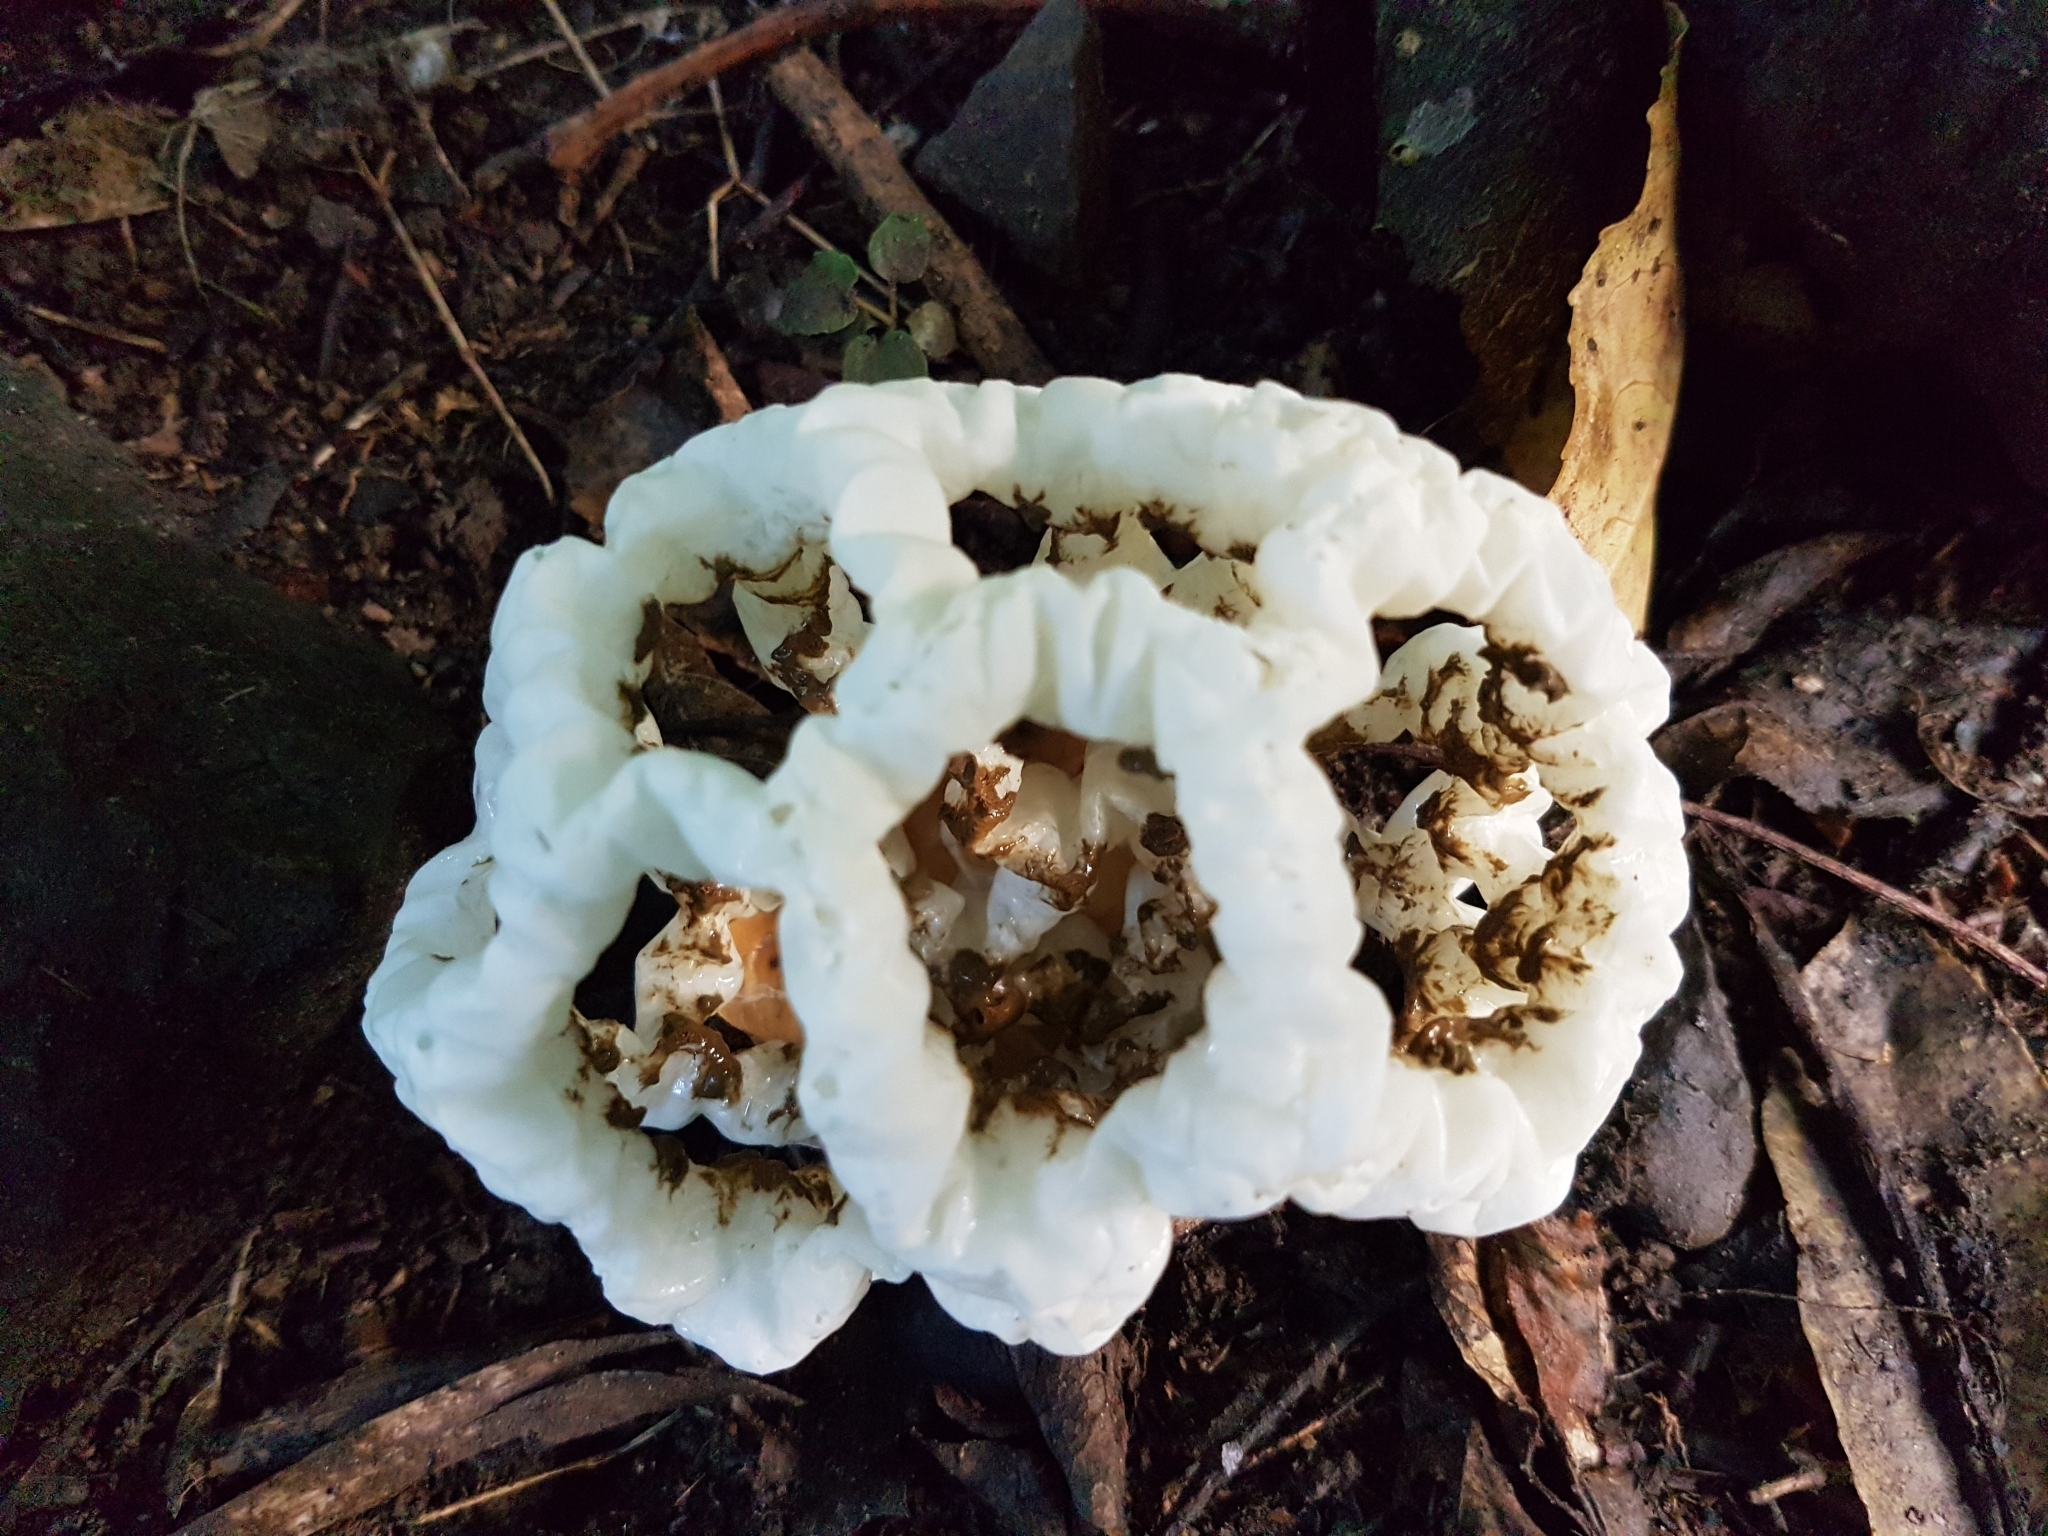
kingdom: Fungi
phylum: Basidiomycota
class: Agaricomycetes
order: Phallales
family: Phallaceae
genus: Ileodictyon
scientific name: Ileodictyon cibarium
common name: Basket fungus
